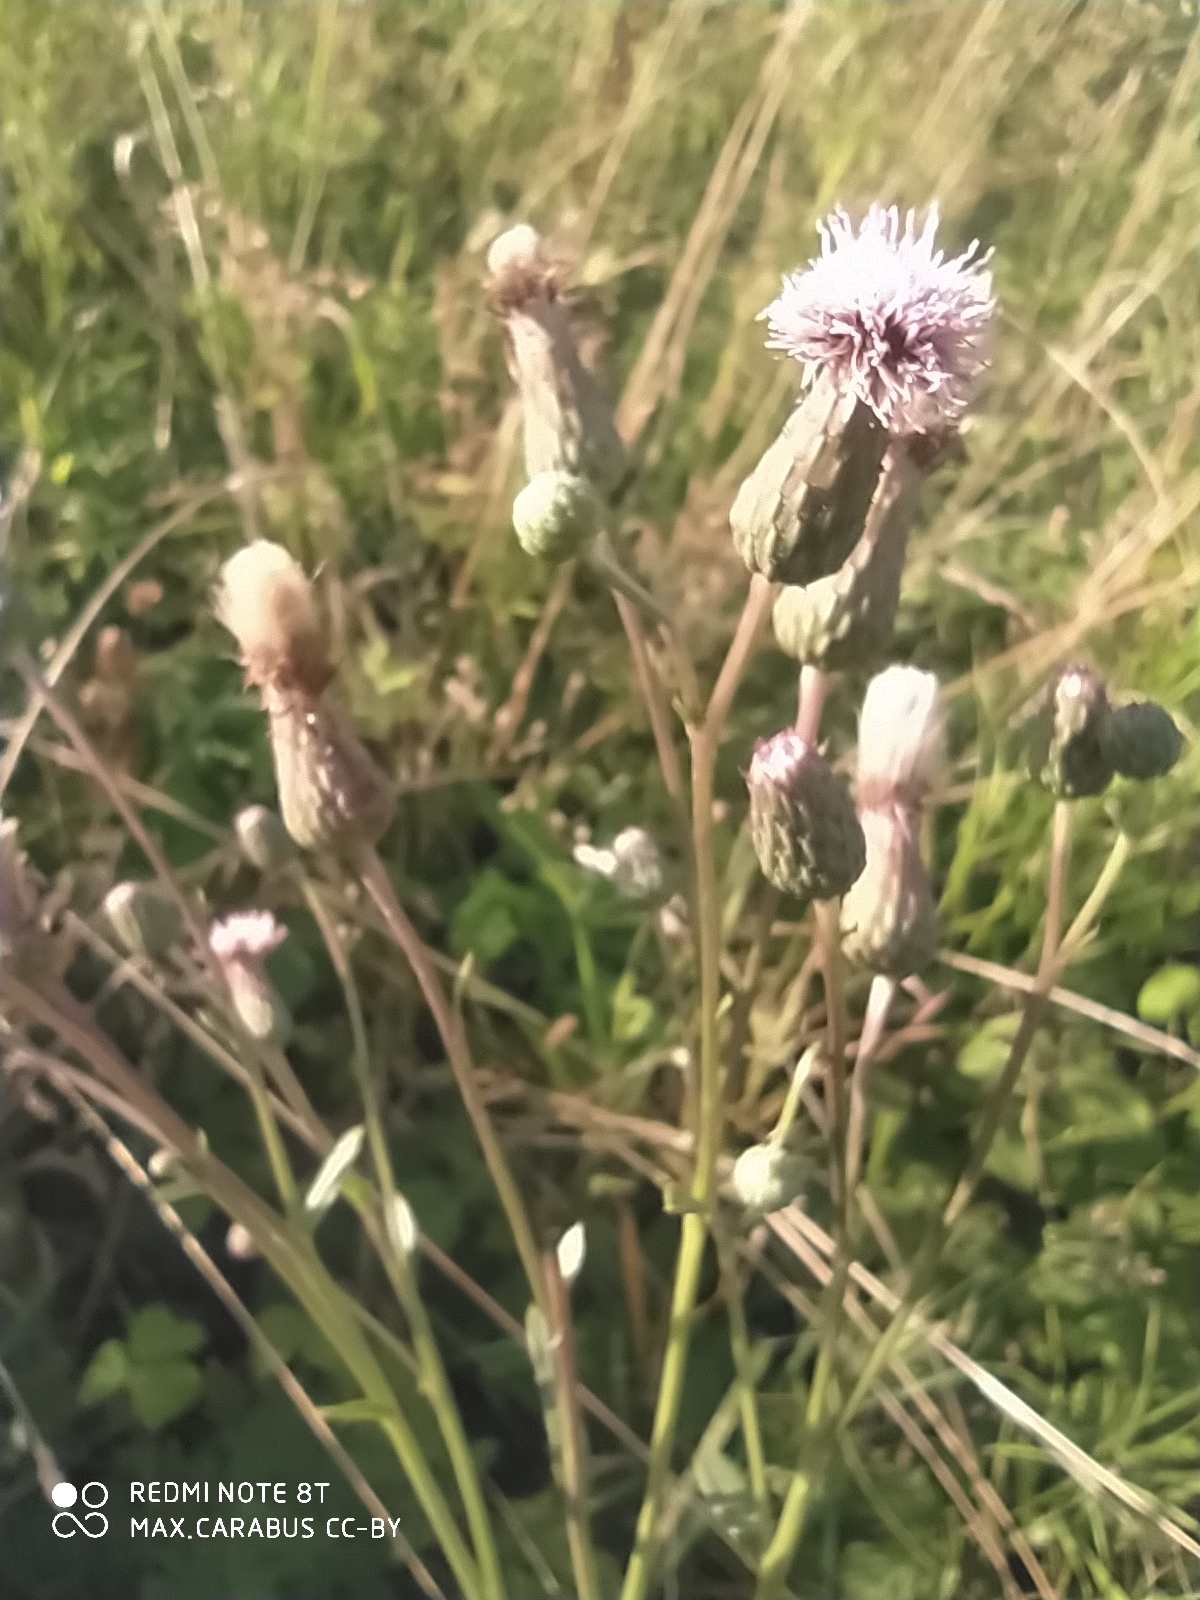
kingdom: Plantae
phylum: Tracheophyta
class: Magnoliopsida
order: Asterales
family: Asteraceae
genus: Cirsium
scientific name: Cirsium arvense
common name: Creeping thistle
